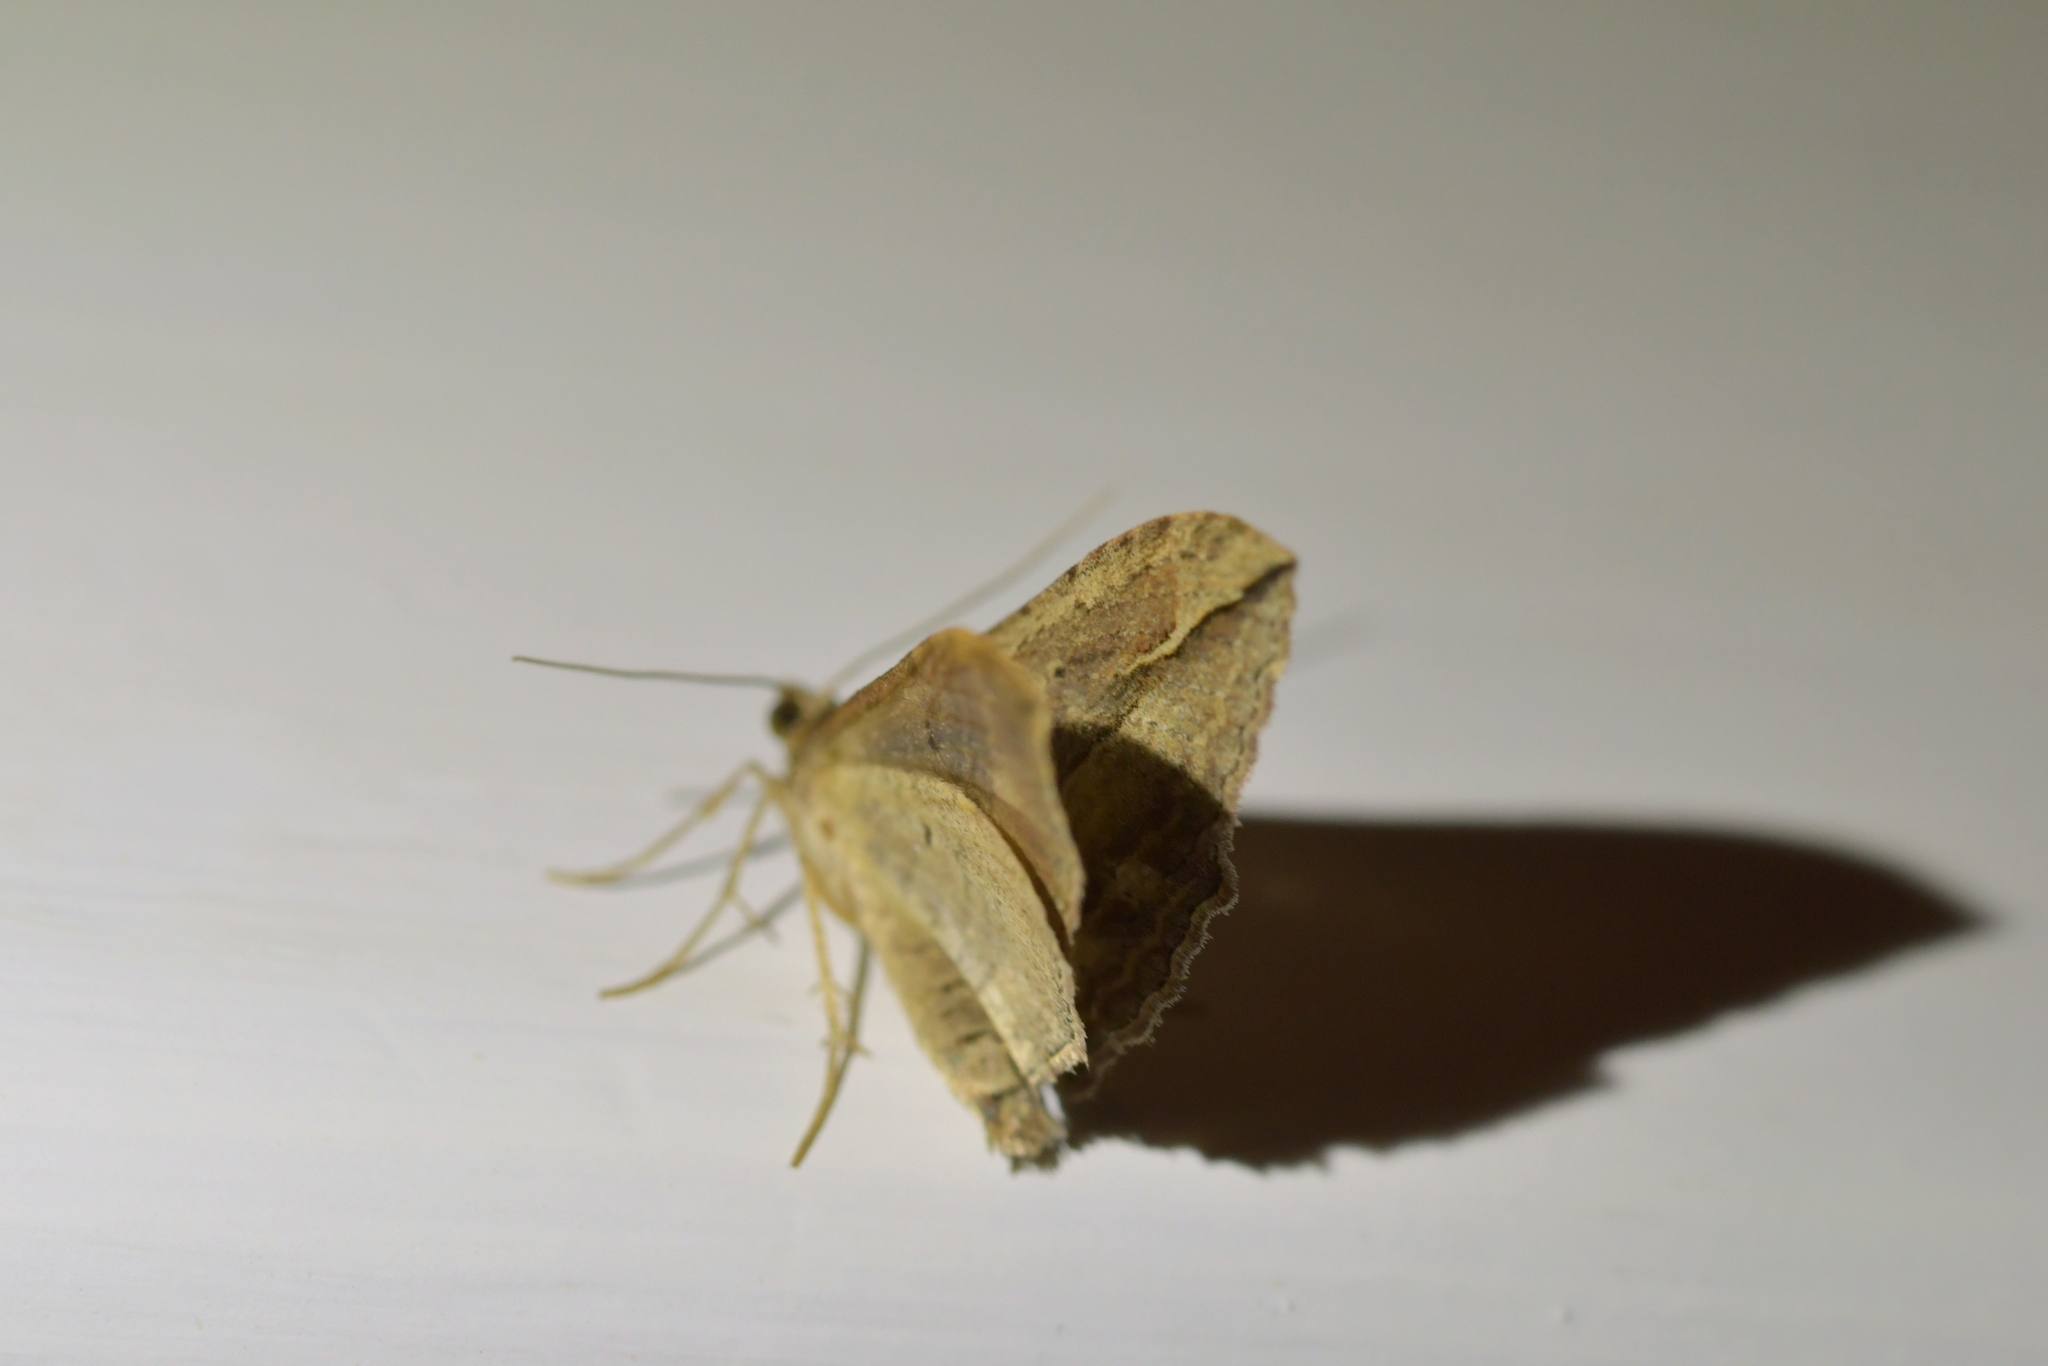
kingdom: Animalia
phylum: Arthropoda
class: Insecta
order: Lepidoptera
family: Geometridae
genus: Austrocidaria
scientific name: Austrocidaria gobiata
